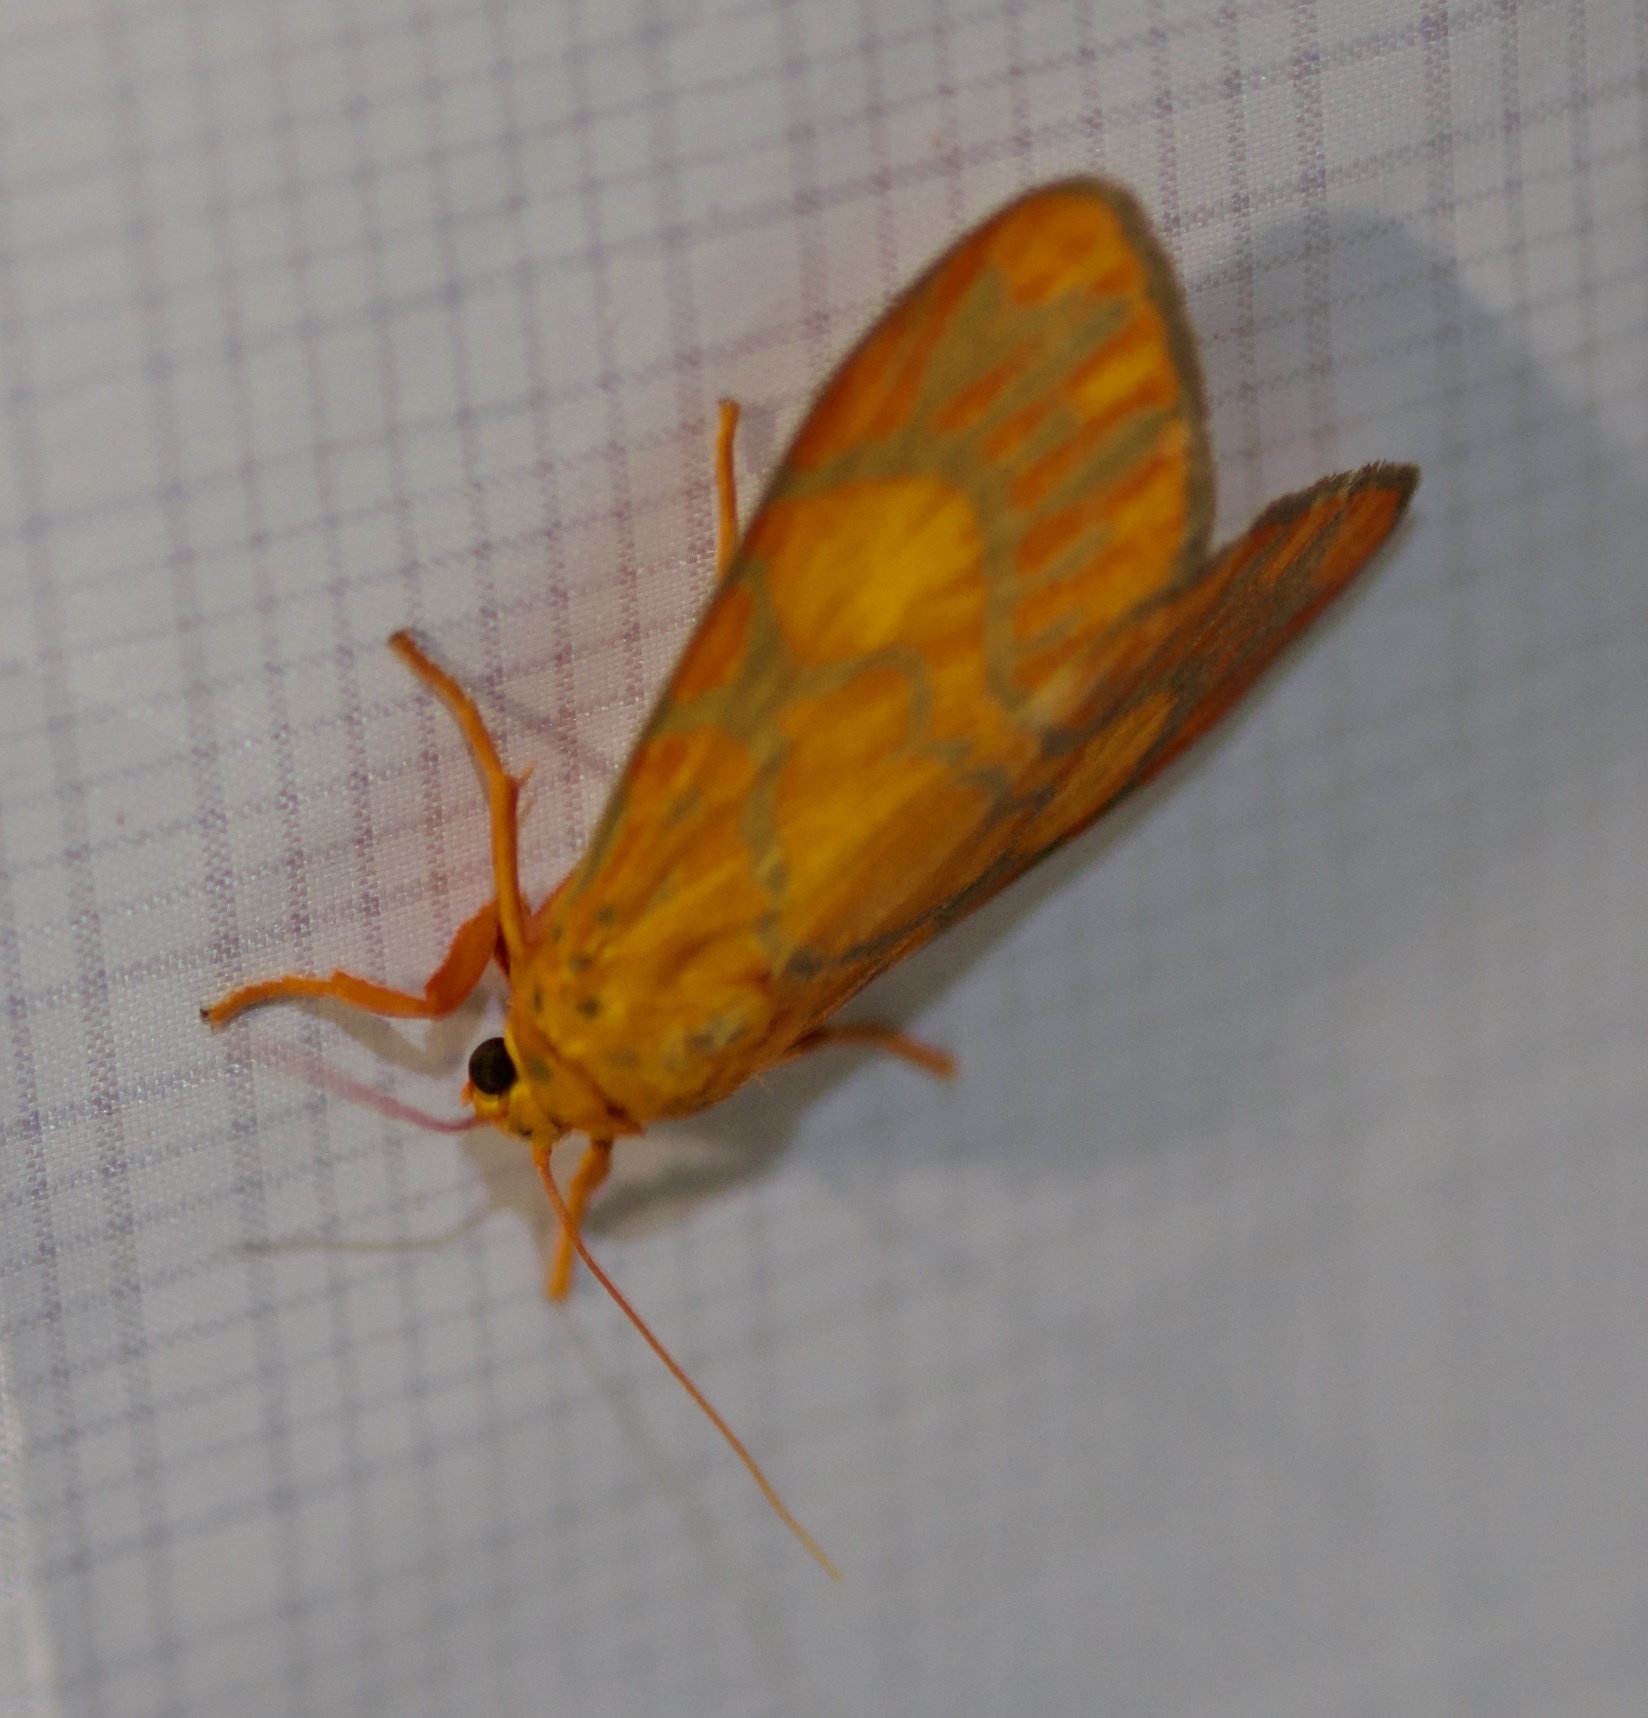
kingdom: Animalia
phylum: Arthropoda
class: Insecta
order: Lepidoptera
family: Erebidae
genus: Ammatho
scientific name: Ammatho roseororatus
